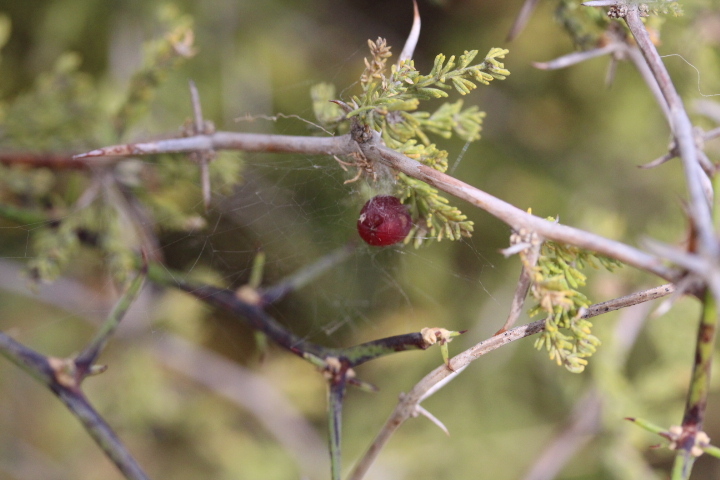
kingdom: Plantae
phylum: Tracheophyta
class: Liliopsida
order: Asparagales
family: Asparagaceae
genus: Asparagus
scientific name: Asparagus capensis
